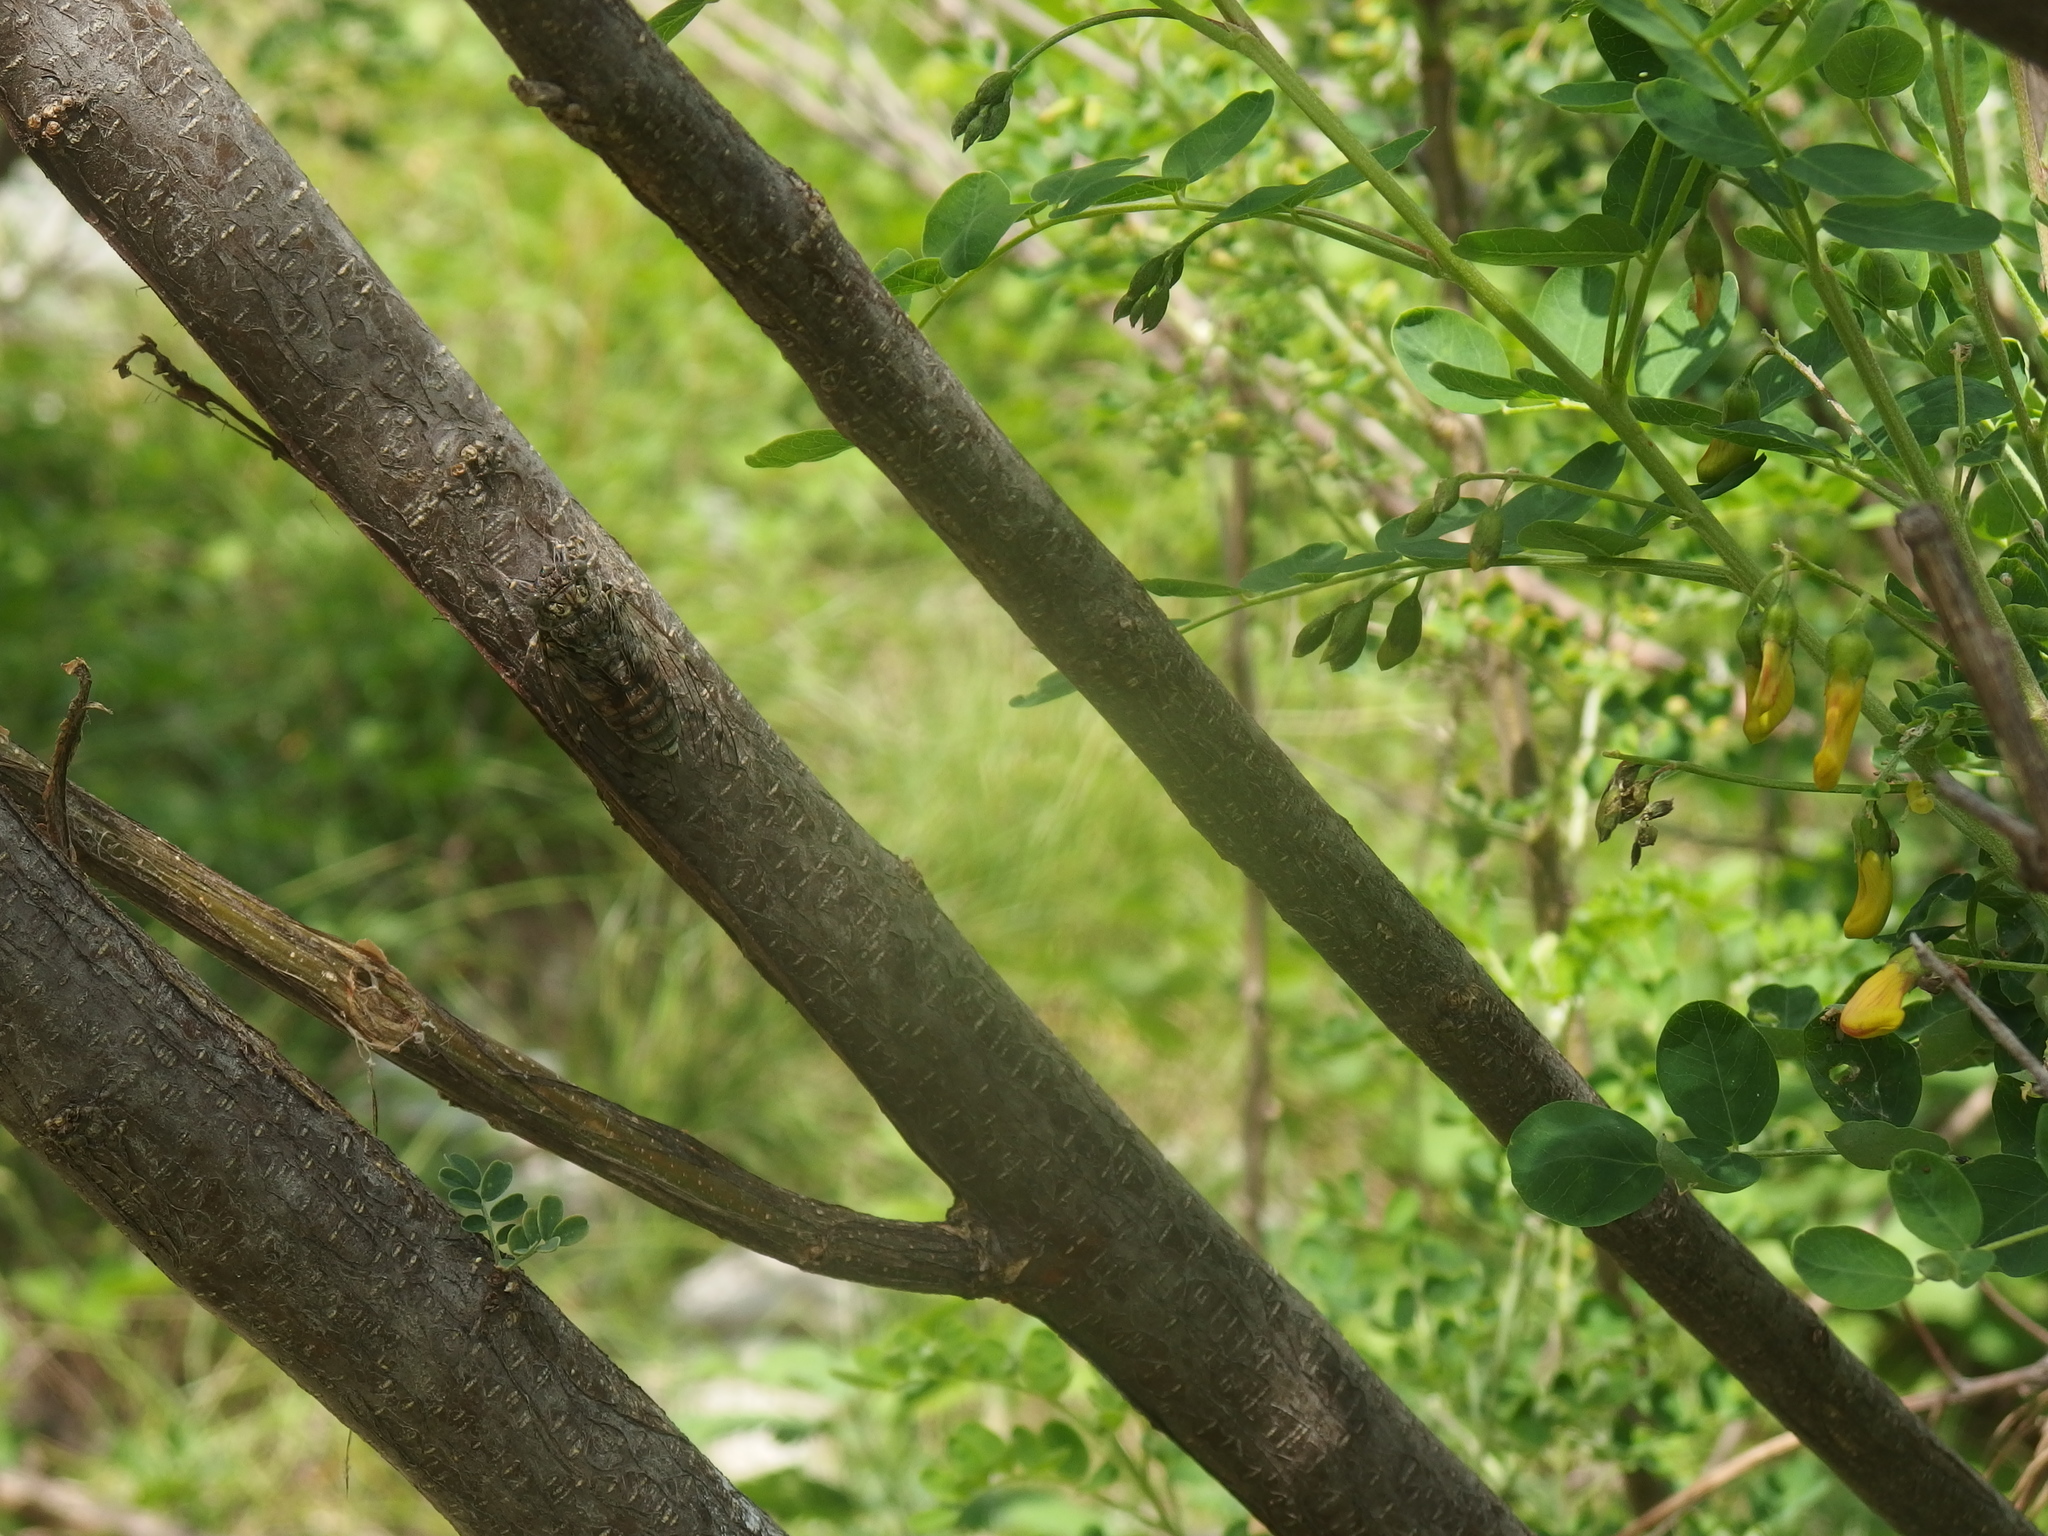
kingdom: Animalia
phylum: Arthropoda
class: Insecta
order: Hemiptera
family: Cicadidae
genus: Cicada
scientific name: Cicada orni
